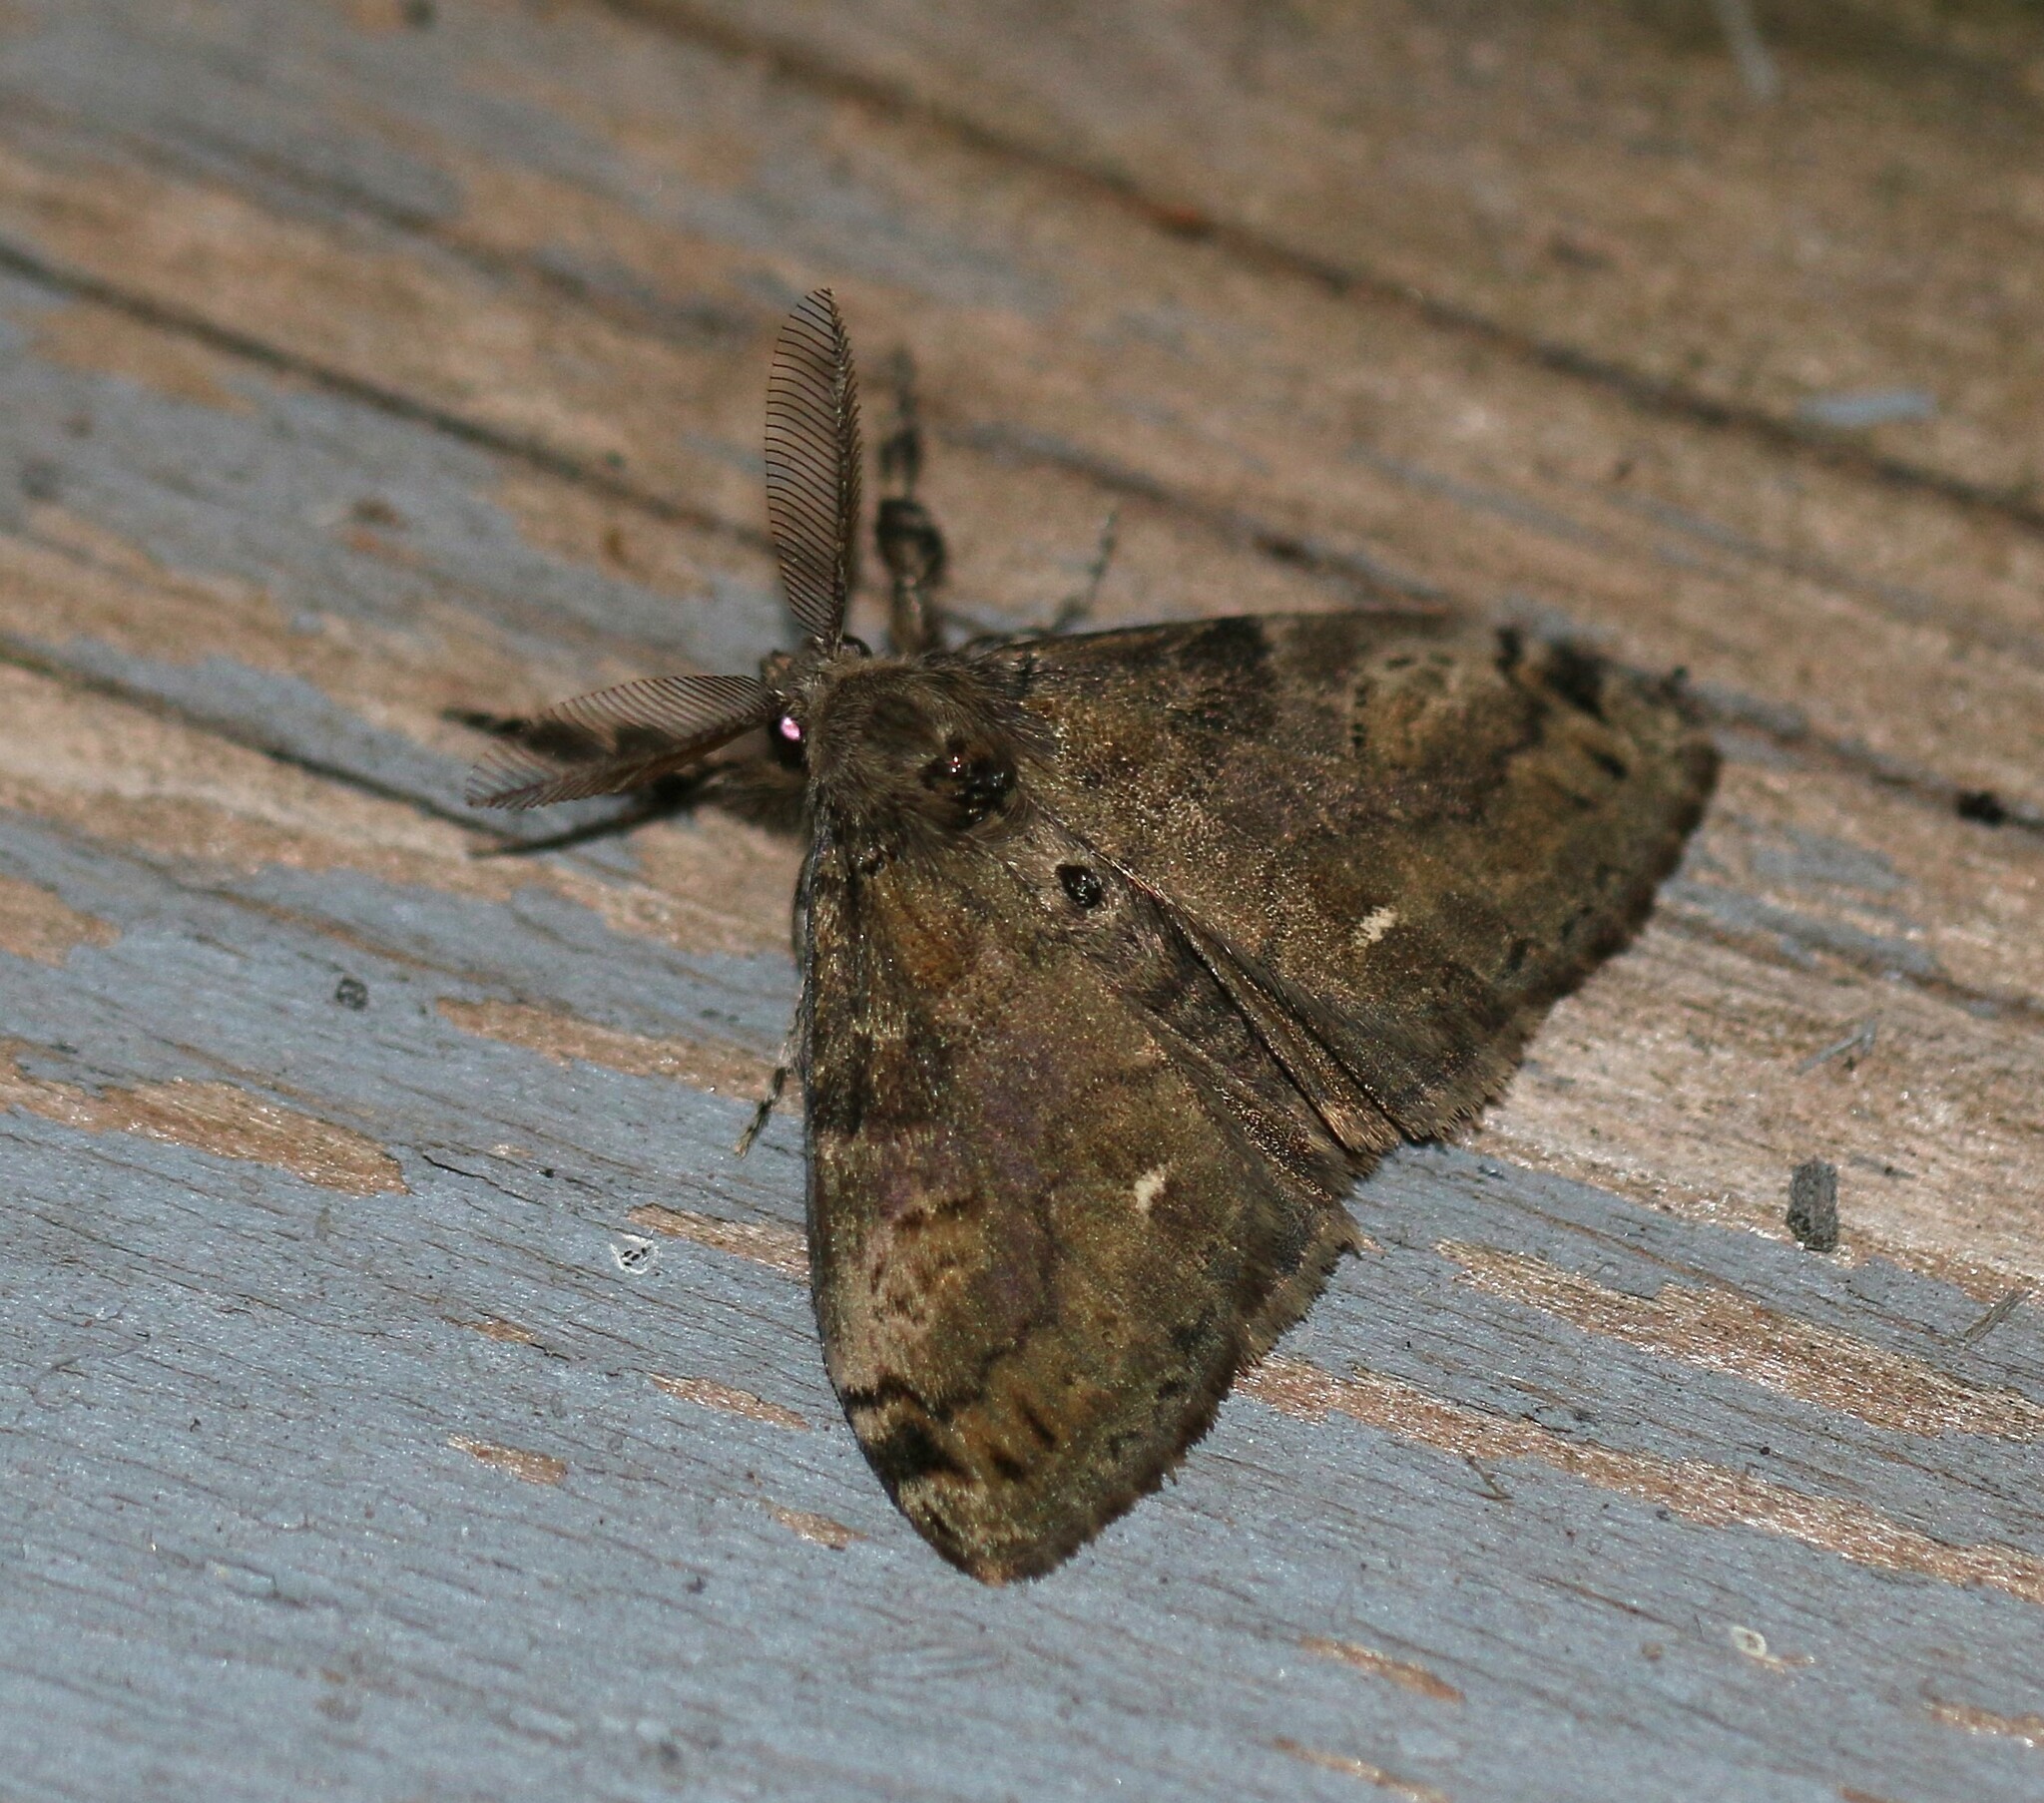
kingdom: Animalia
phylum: Arthropoda
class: Insecta
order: Lepidoptera
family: Erebidae
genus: Orgyia
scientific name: Orgyia leucostigma
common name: White-marked tussock moth
